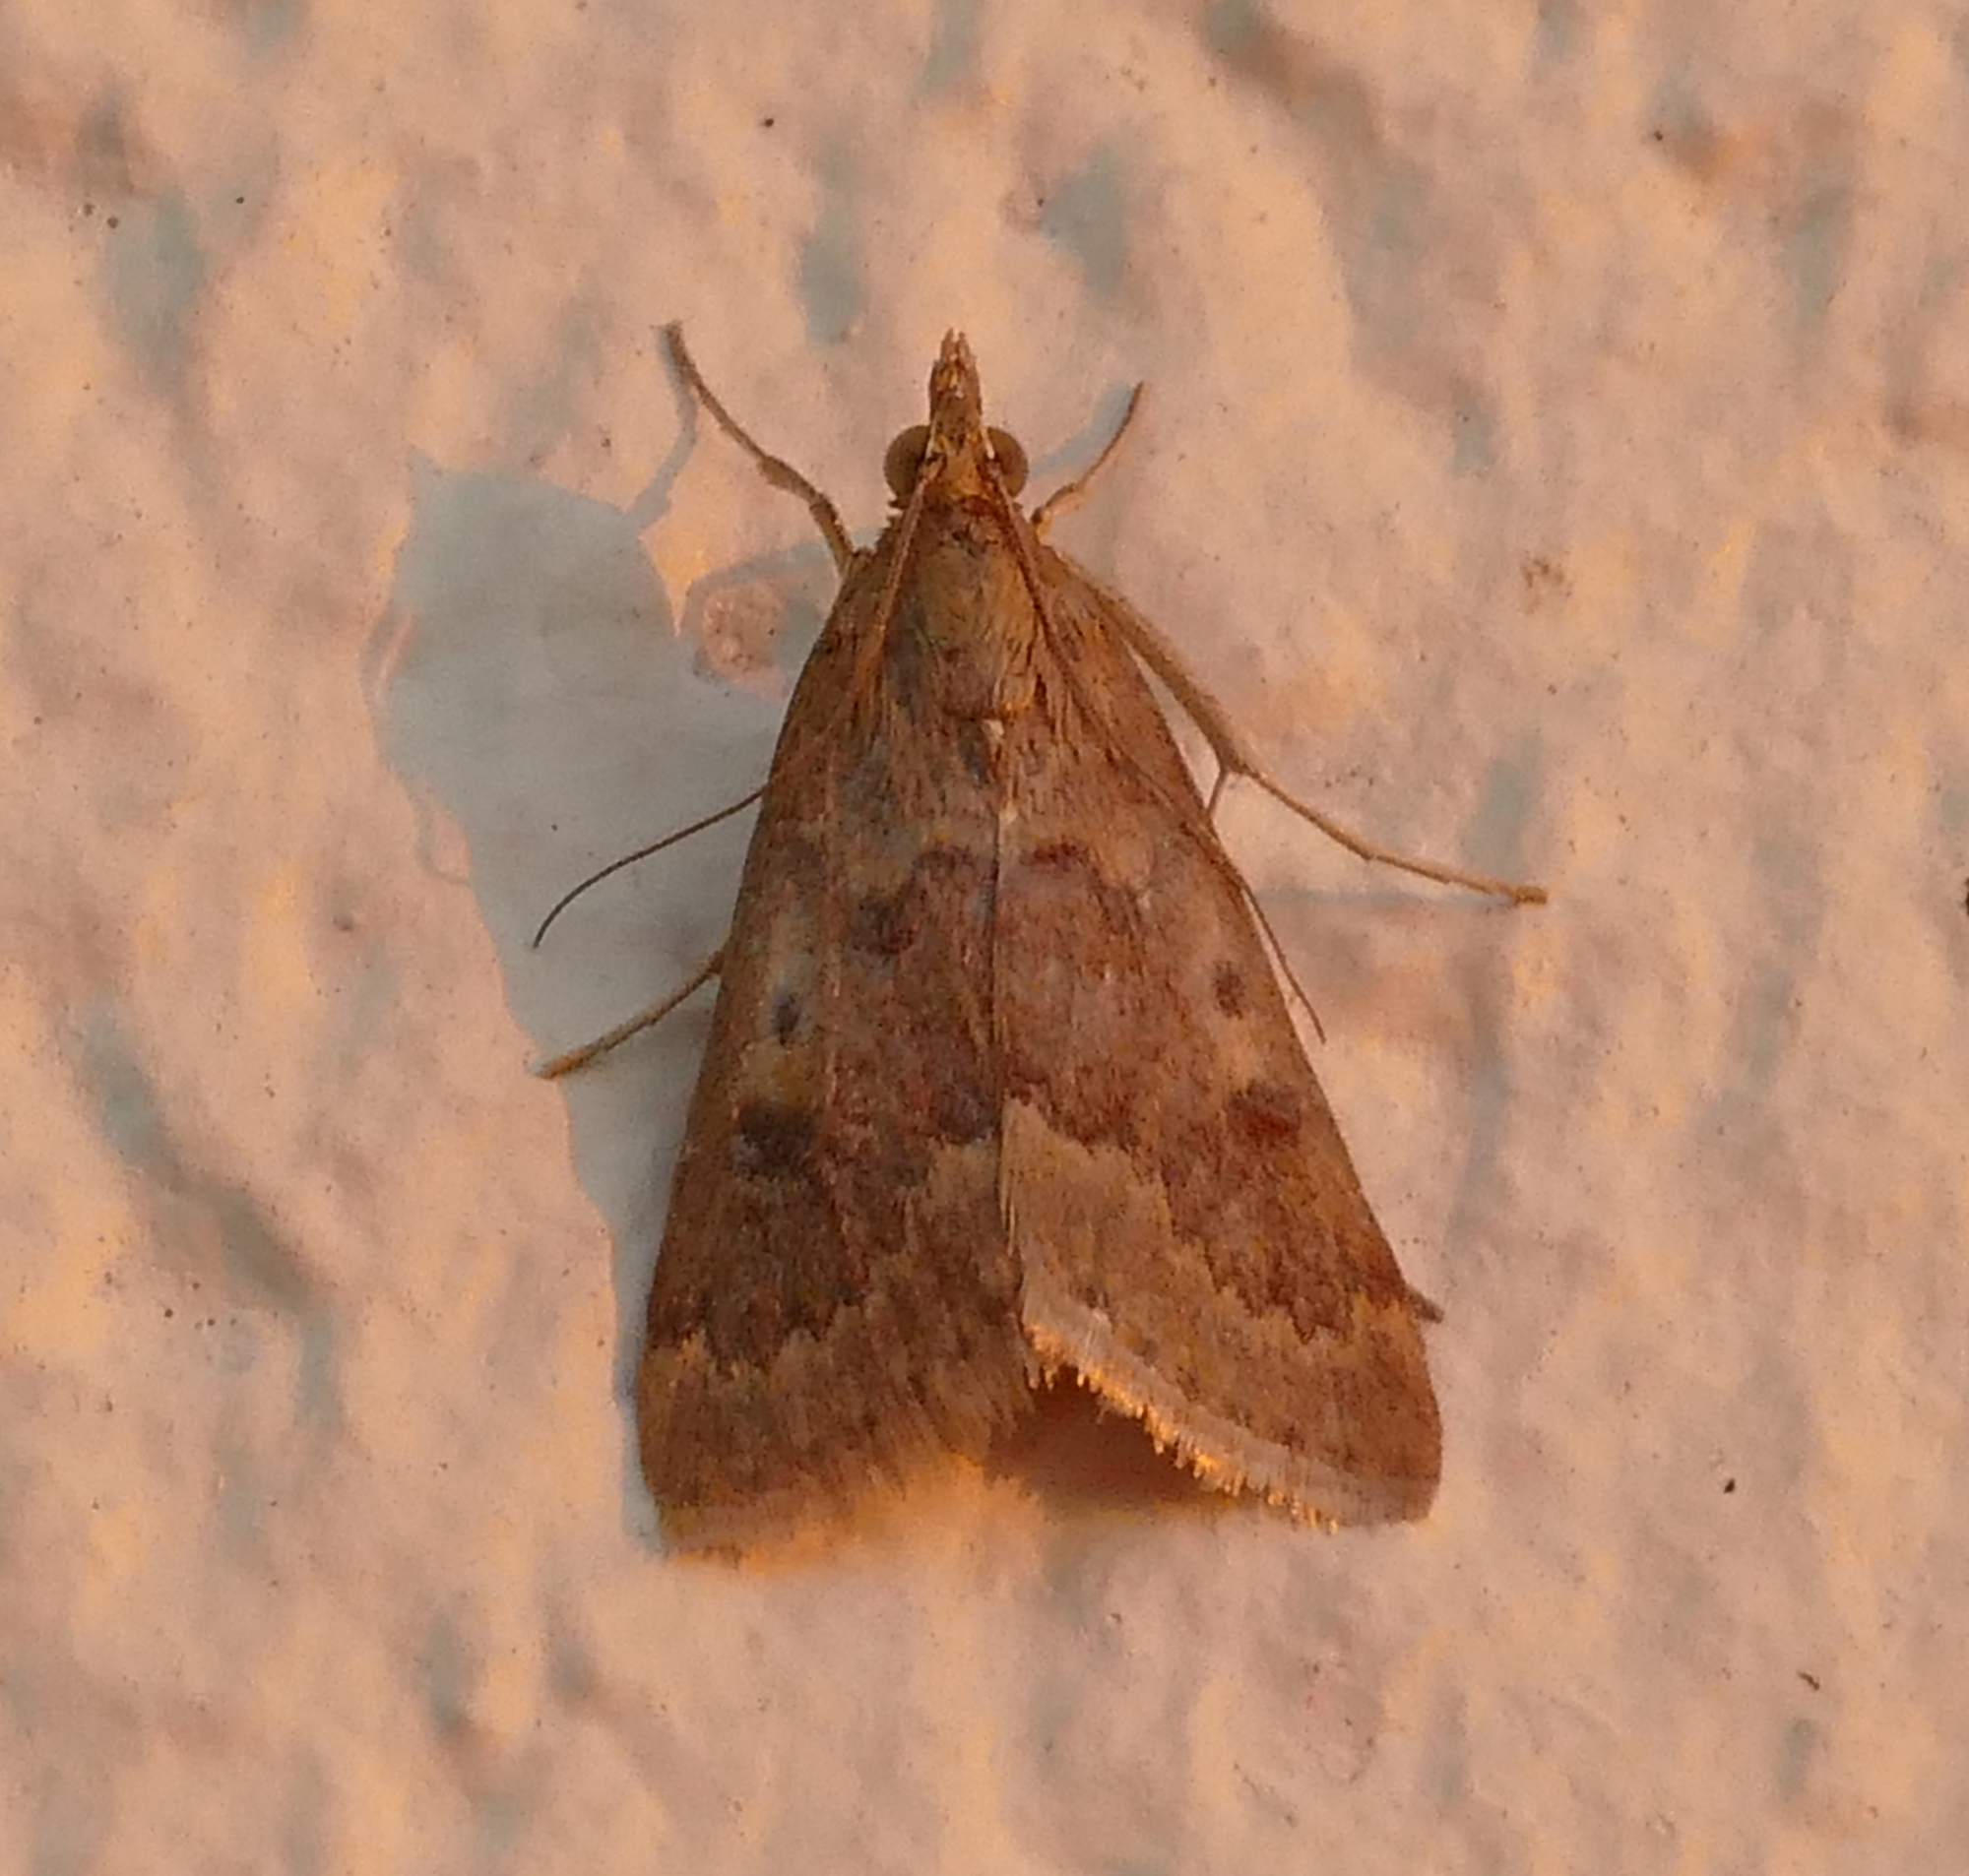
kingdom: Animalia
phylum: Arthropoda
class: Insecta
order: Lepidoptera
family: Crambidae
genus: Achyra
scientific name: Achyra rantalis
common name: Garden webworm
